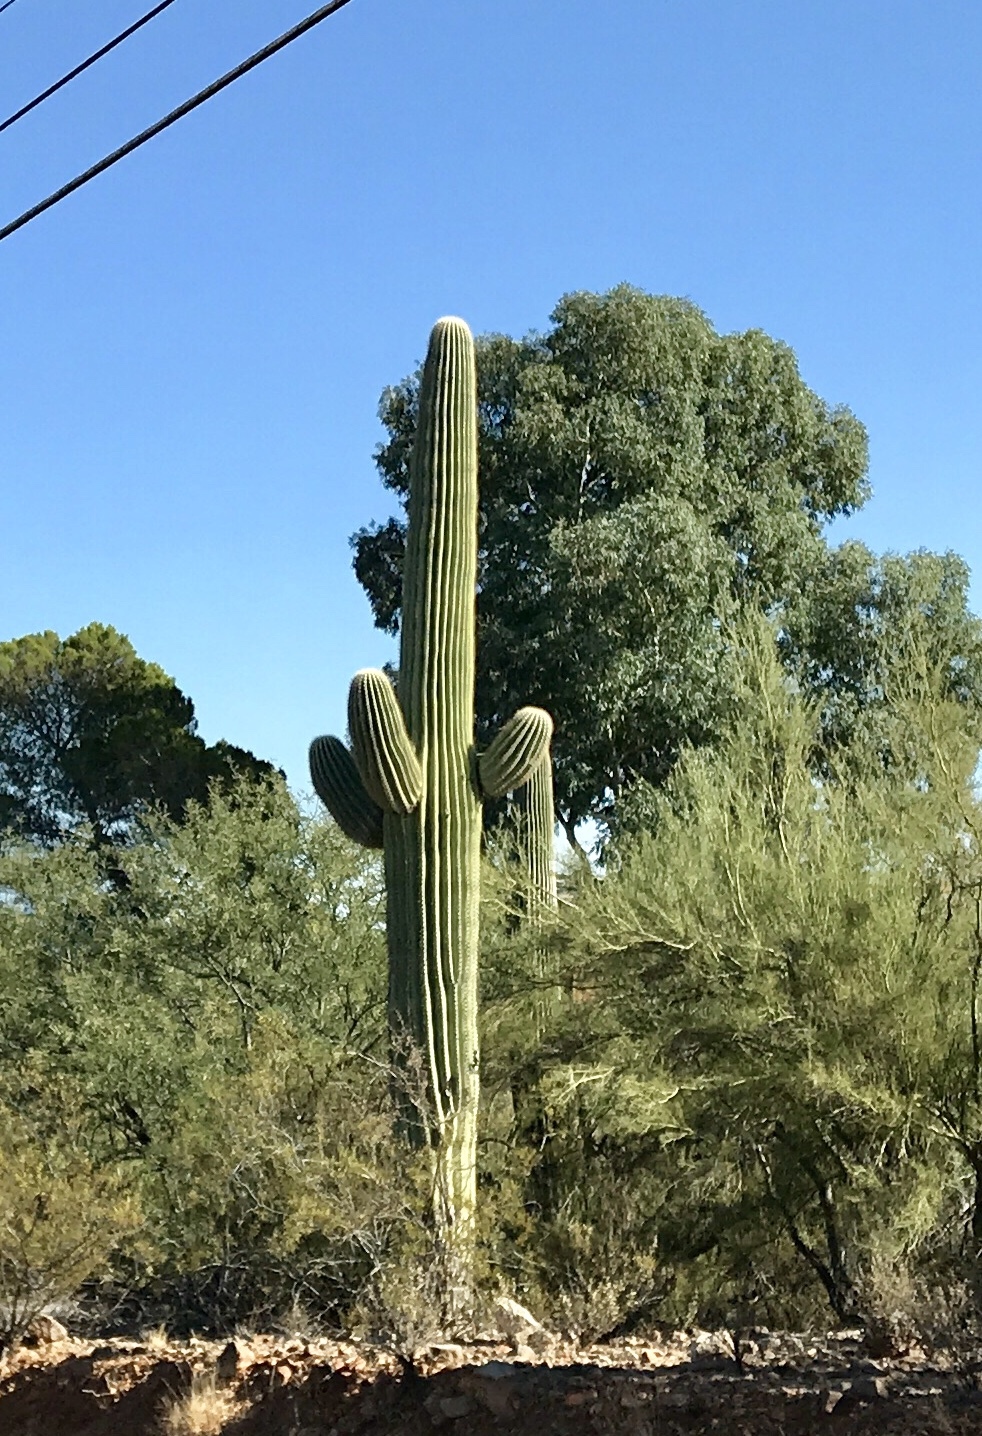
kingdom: Plantae
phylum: Tracheophyta
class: Magnoliopsida
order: Caryophyllales
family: Cactaceae
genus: Carnegiea
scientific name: Carnegiea gigantea
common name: Saguaro
